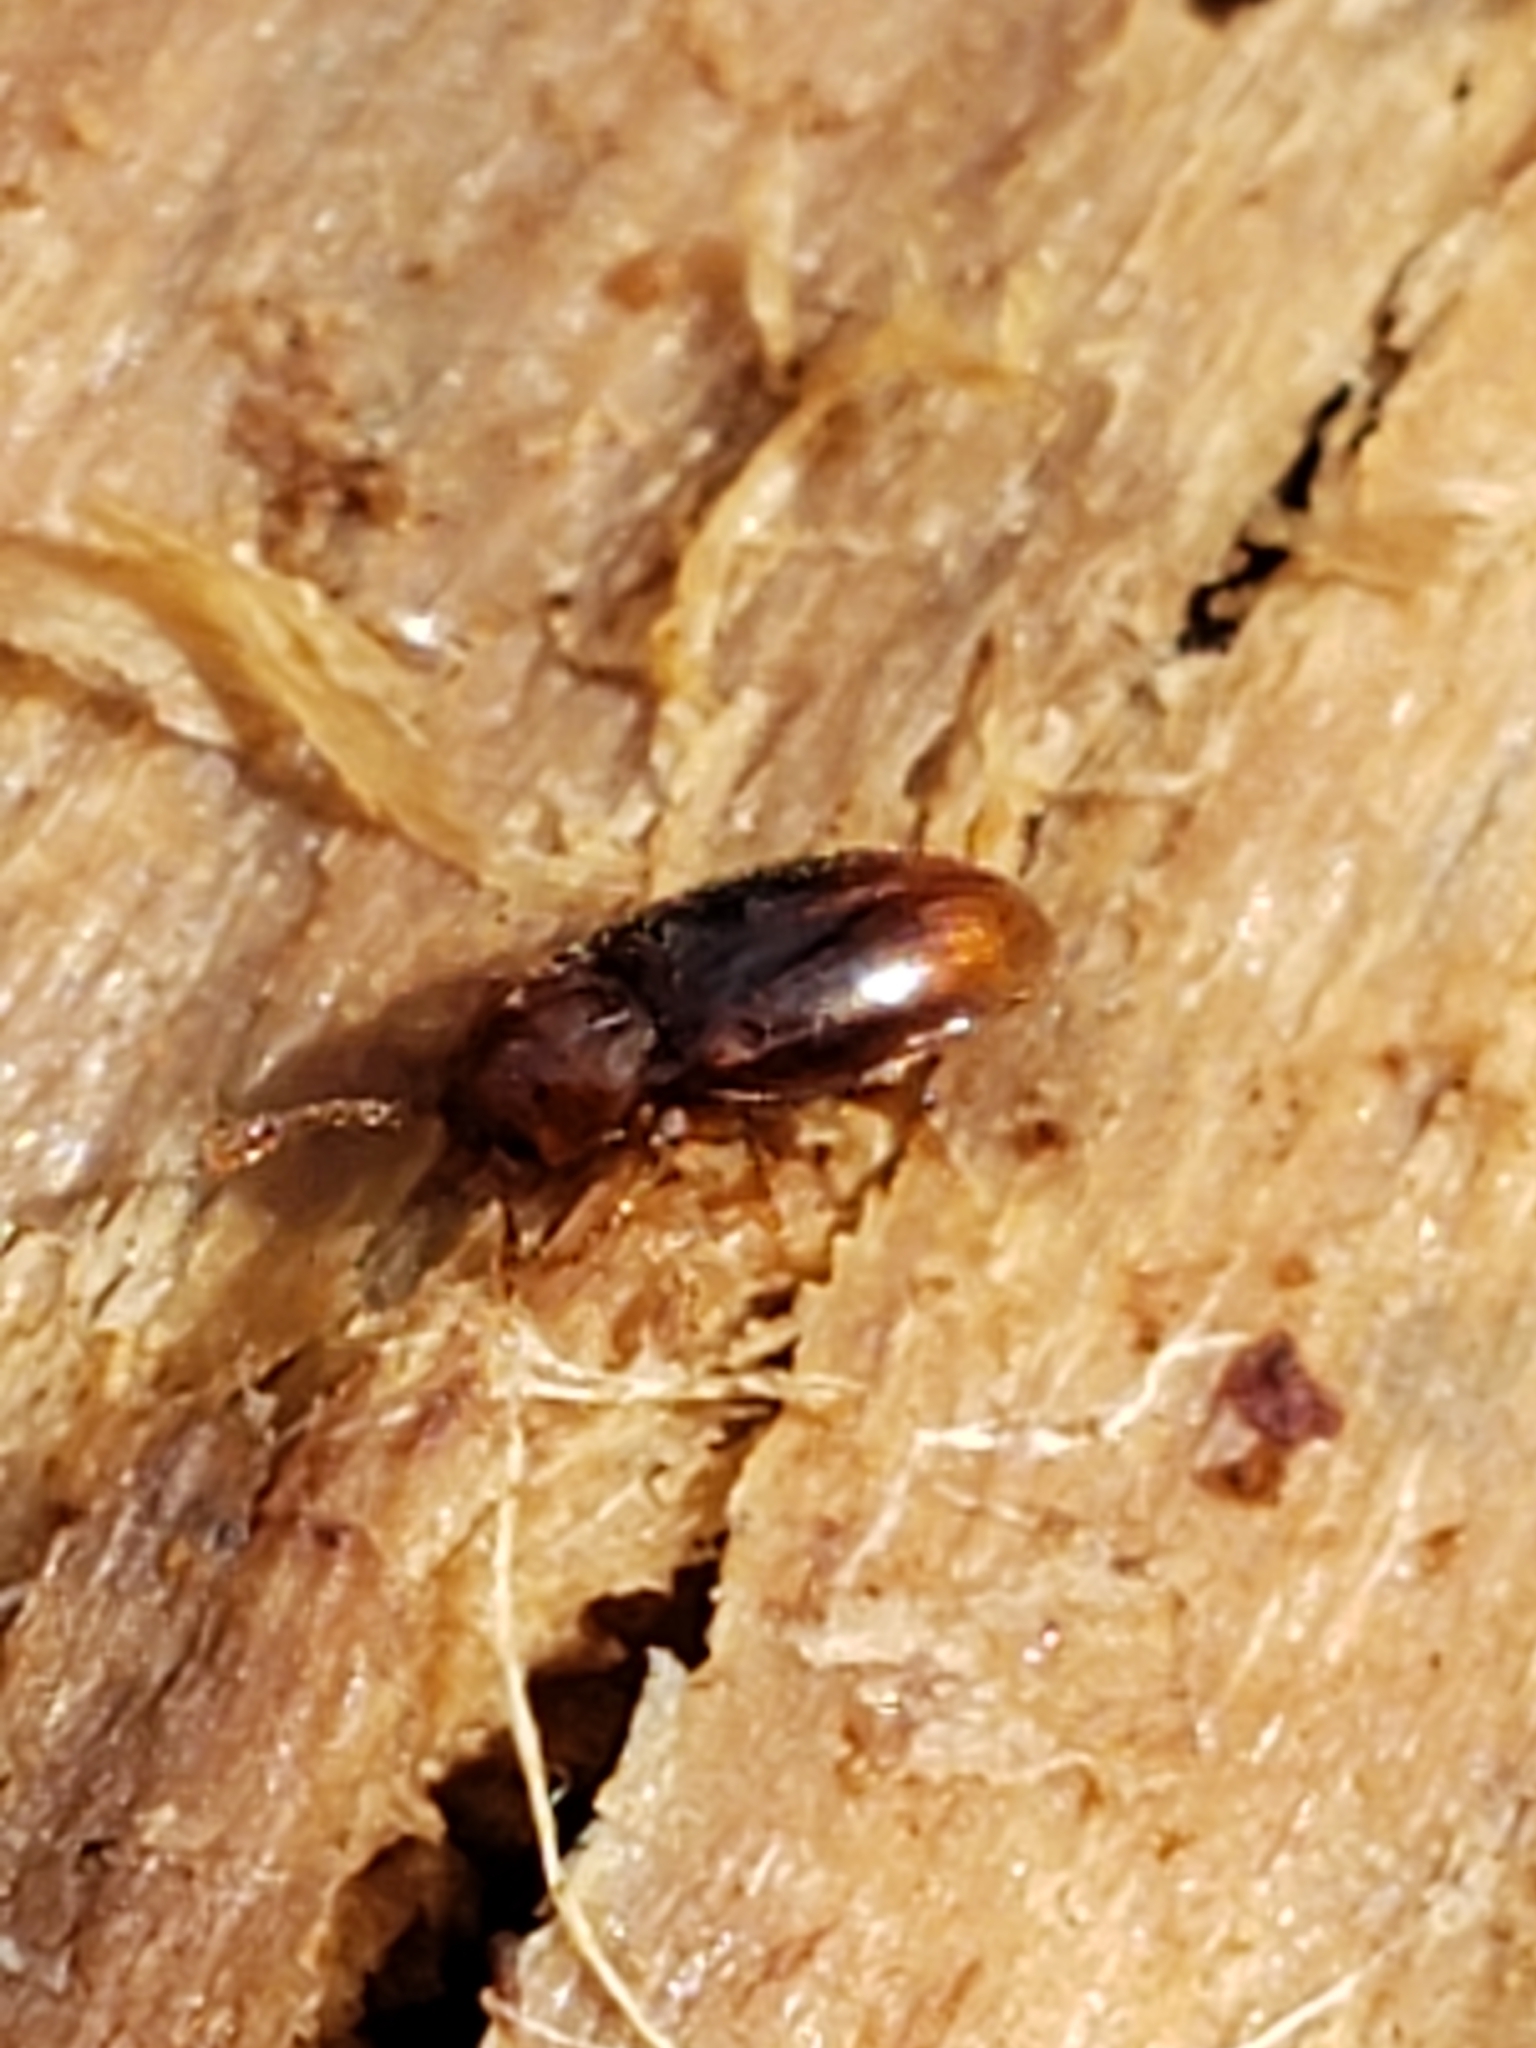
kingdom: Animalia
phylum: Arthropoda
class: Insecta
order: Coleoptera
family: Endomychidae
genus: Rhanidea
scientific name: Rhanidea unicolor
